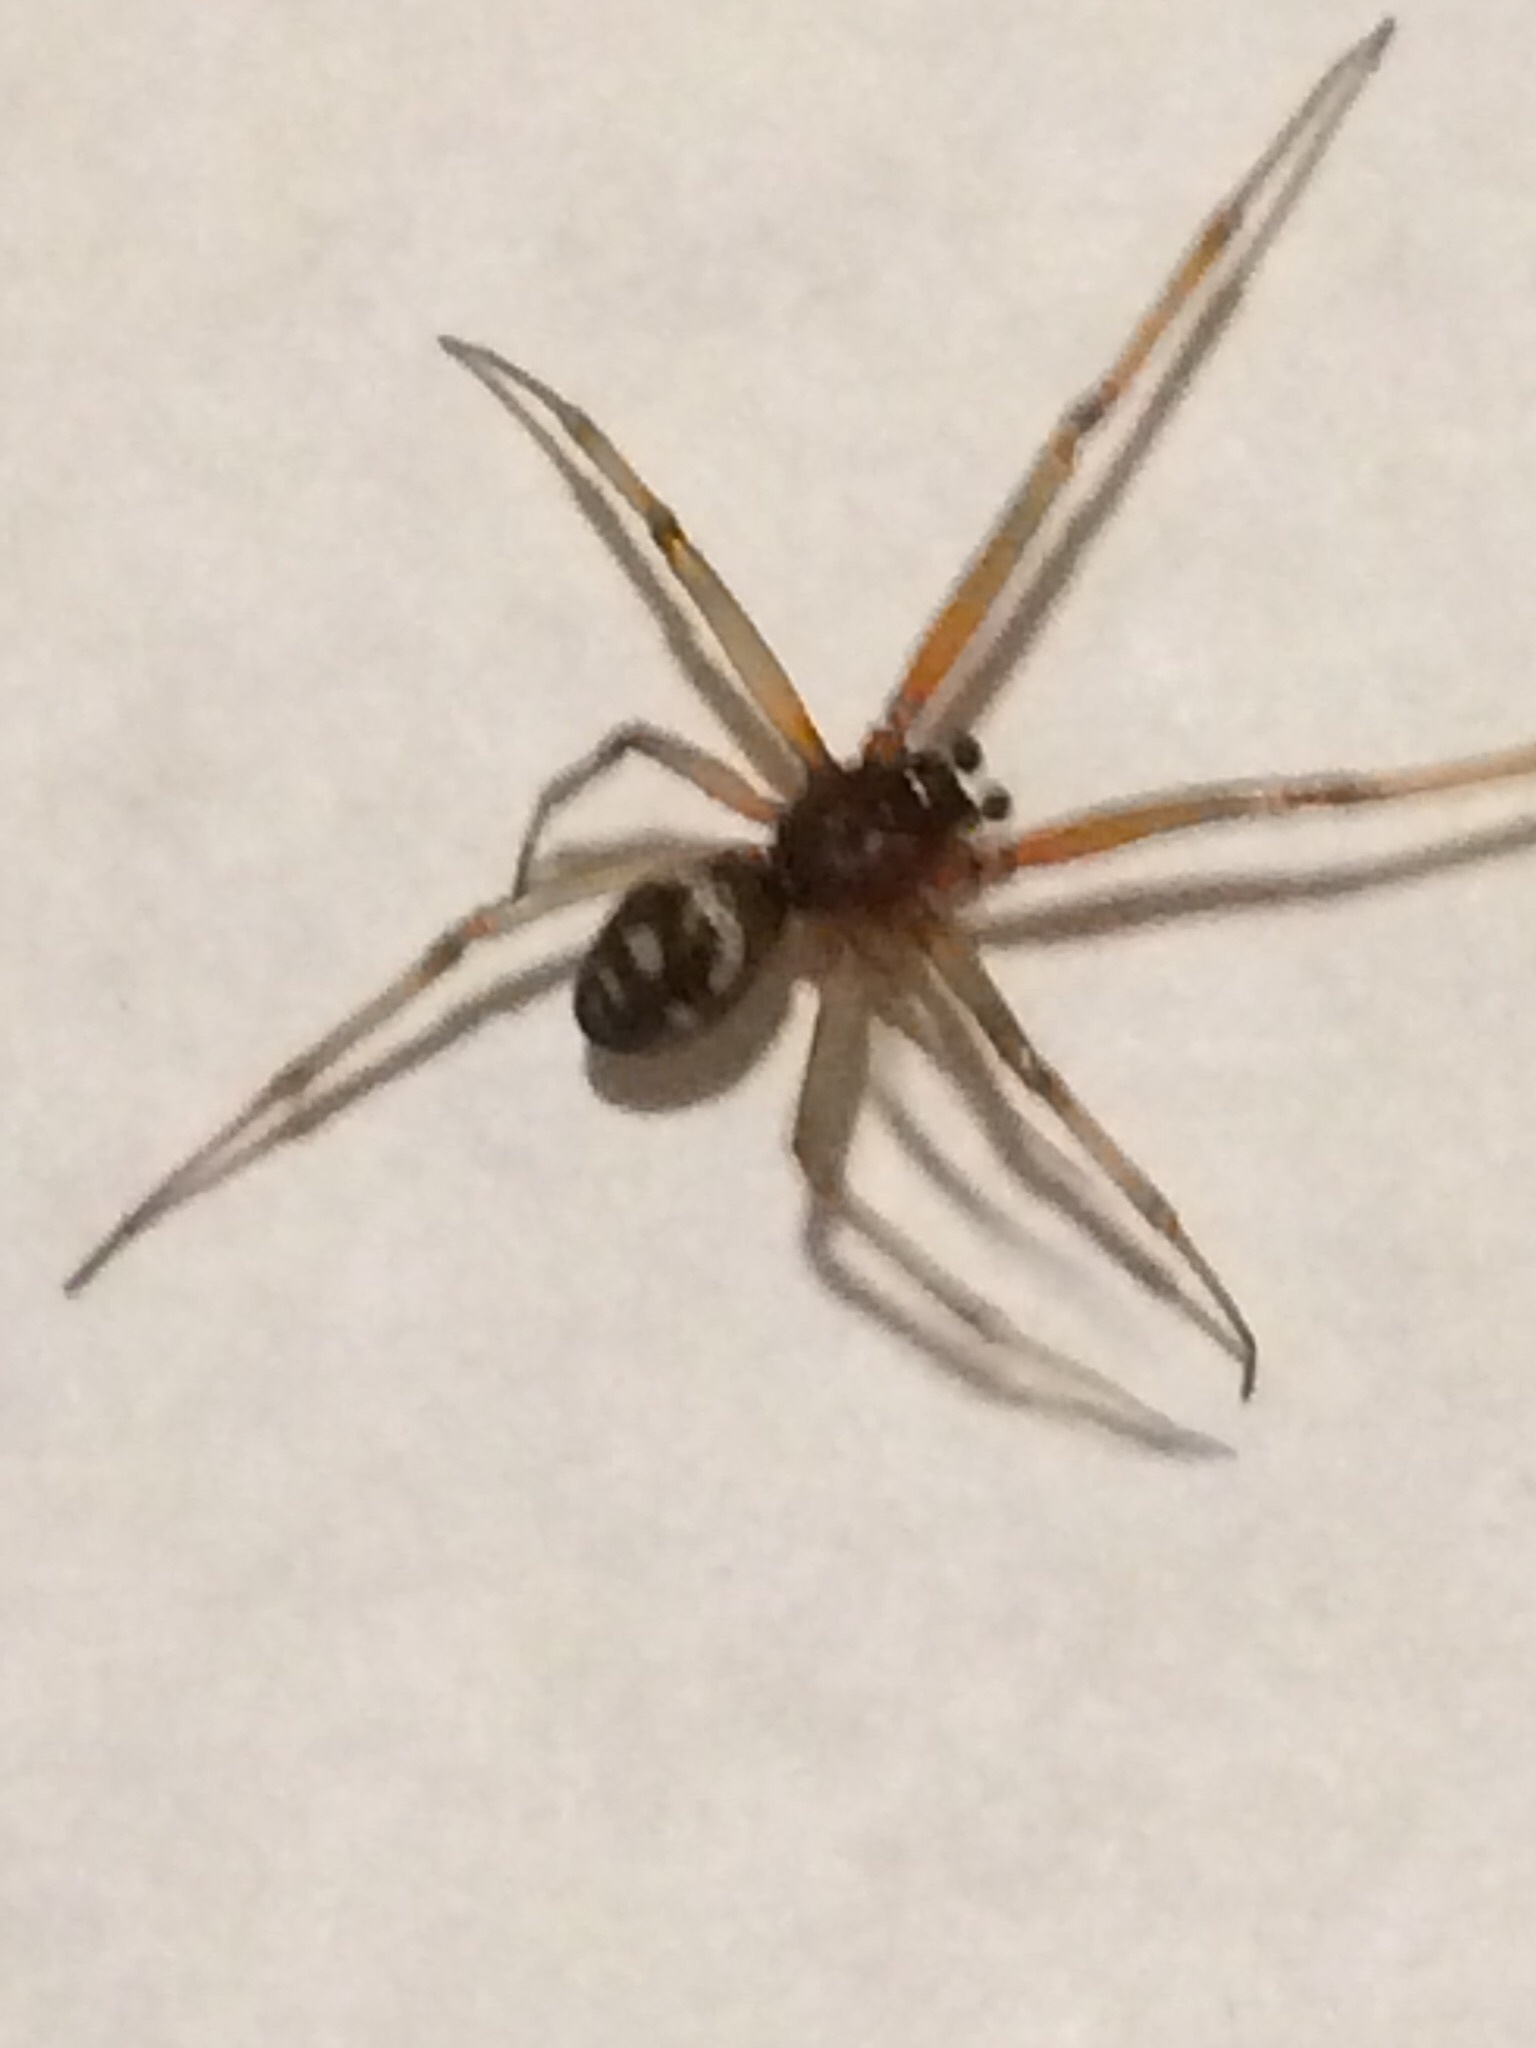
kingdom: Animalia
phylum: Arthropoda
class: Arachnida
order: Araneae
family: Theridiidae
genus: Steatoda
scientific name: Steatoda grossa
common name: False black widow
